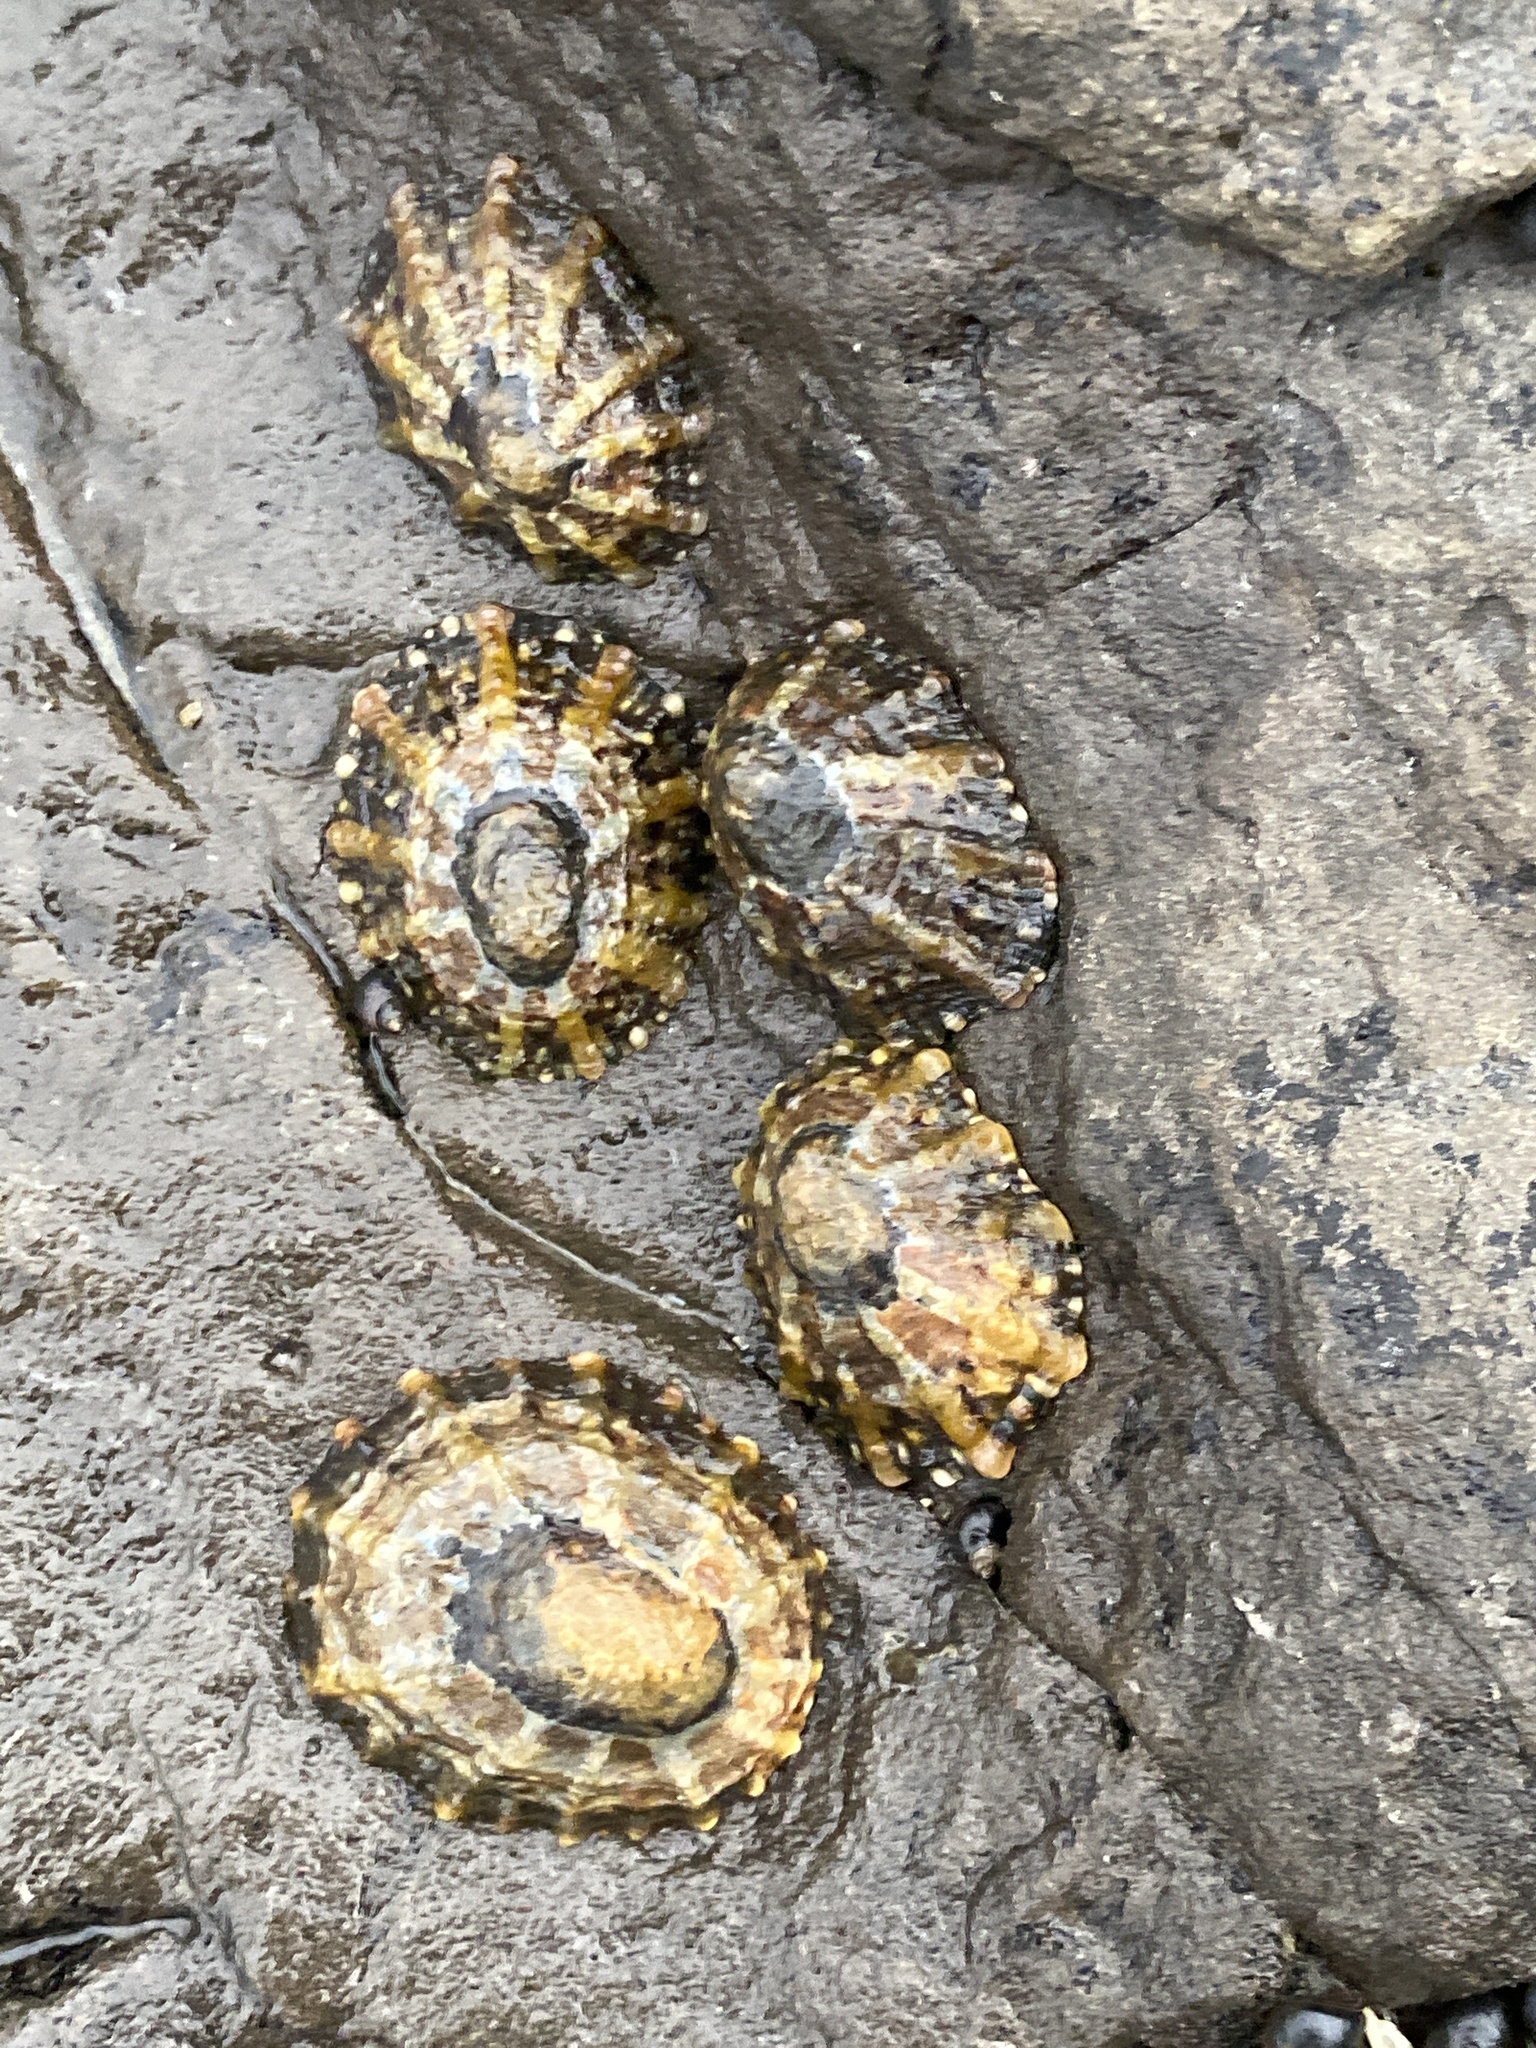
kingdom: Animalia
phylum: Mollusca
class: Gastropoda
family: Nacellidae
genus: Cellana
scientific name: Cellana ornata
